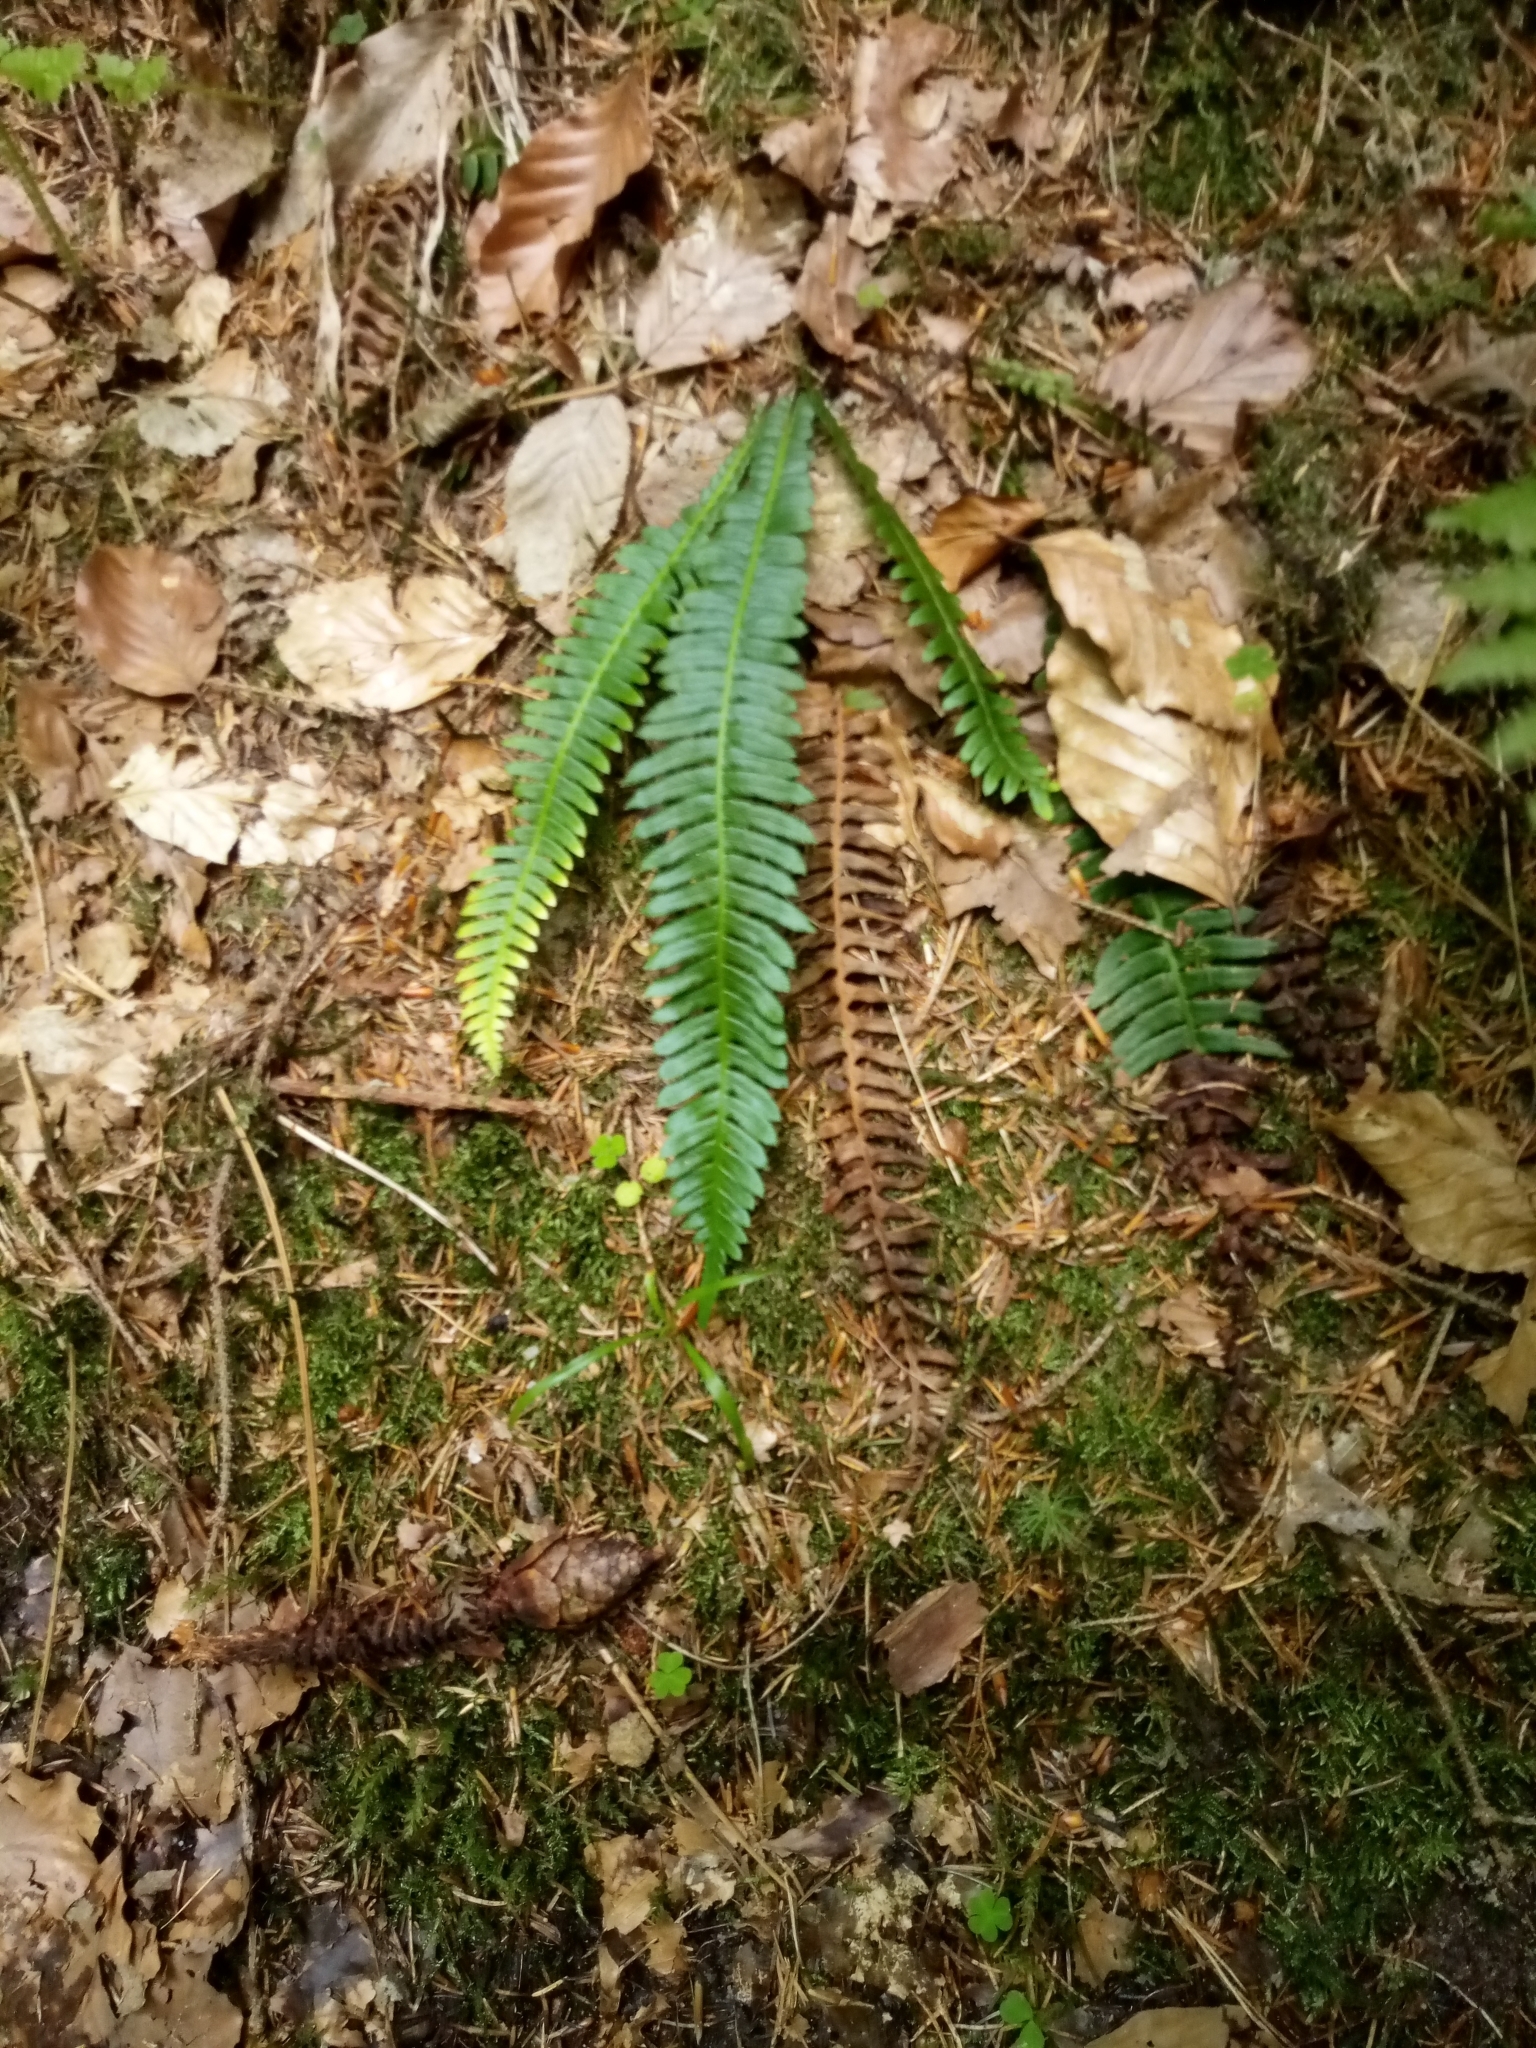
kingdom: Plantae
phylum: Tracheophyta
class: Polypodiopsida
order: Polypodiales
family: Blechnaceae
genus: Struthiopteris
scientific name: Struthiopteris spicant
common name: Deer fern
